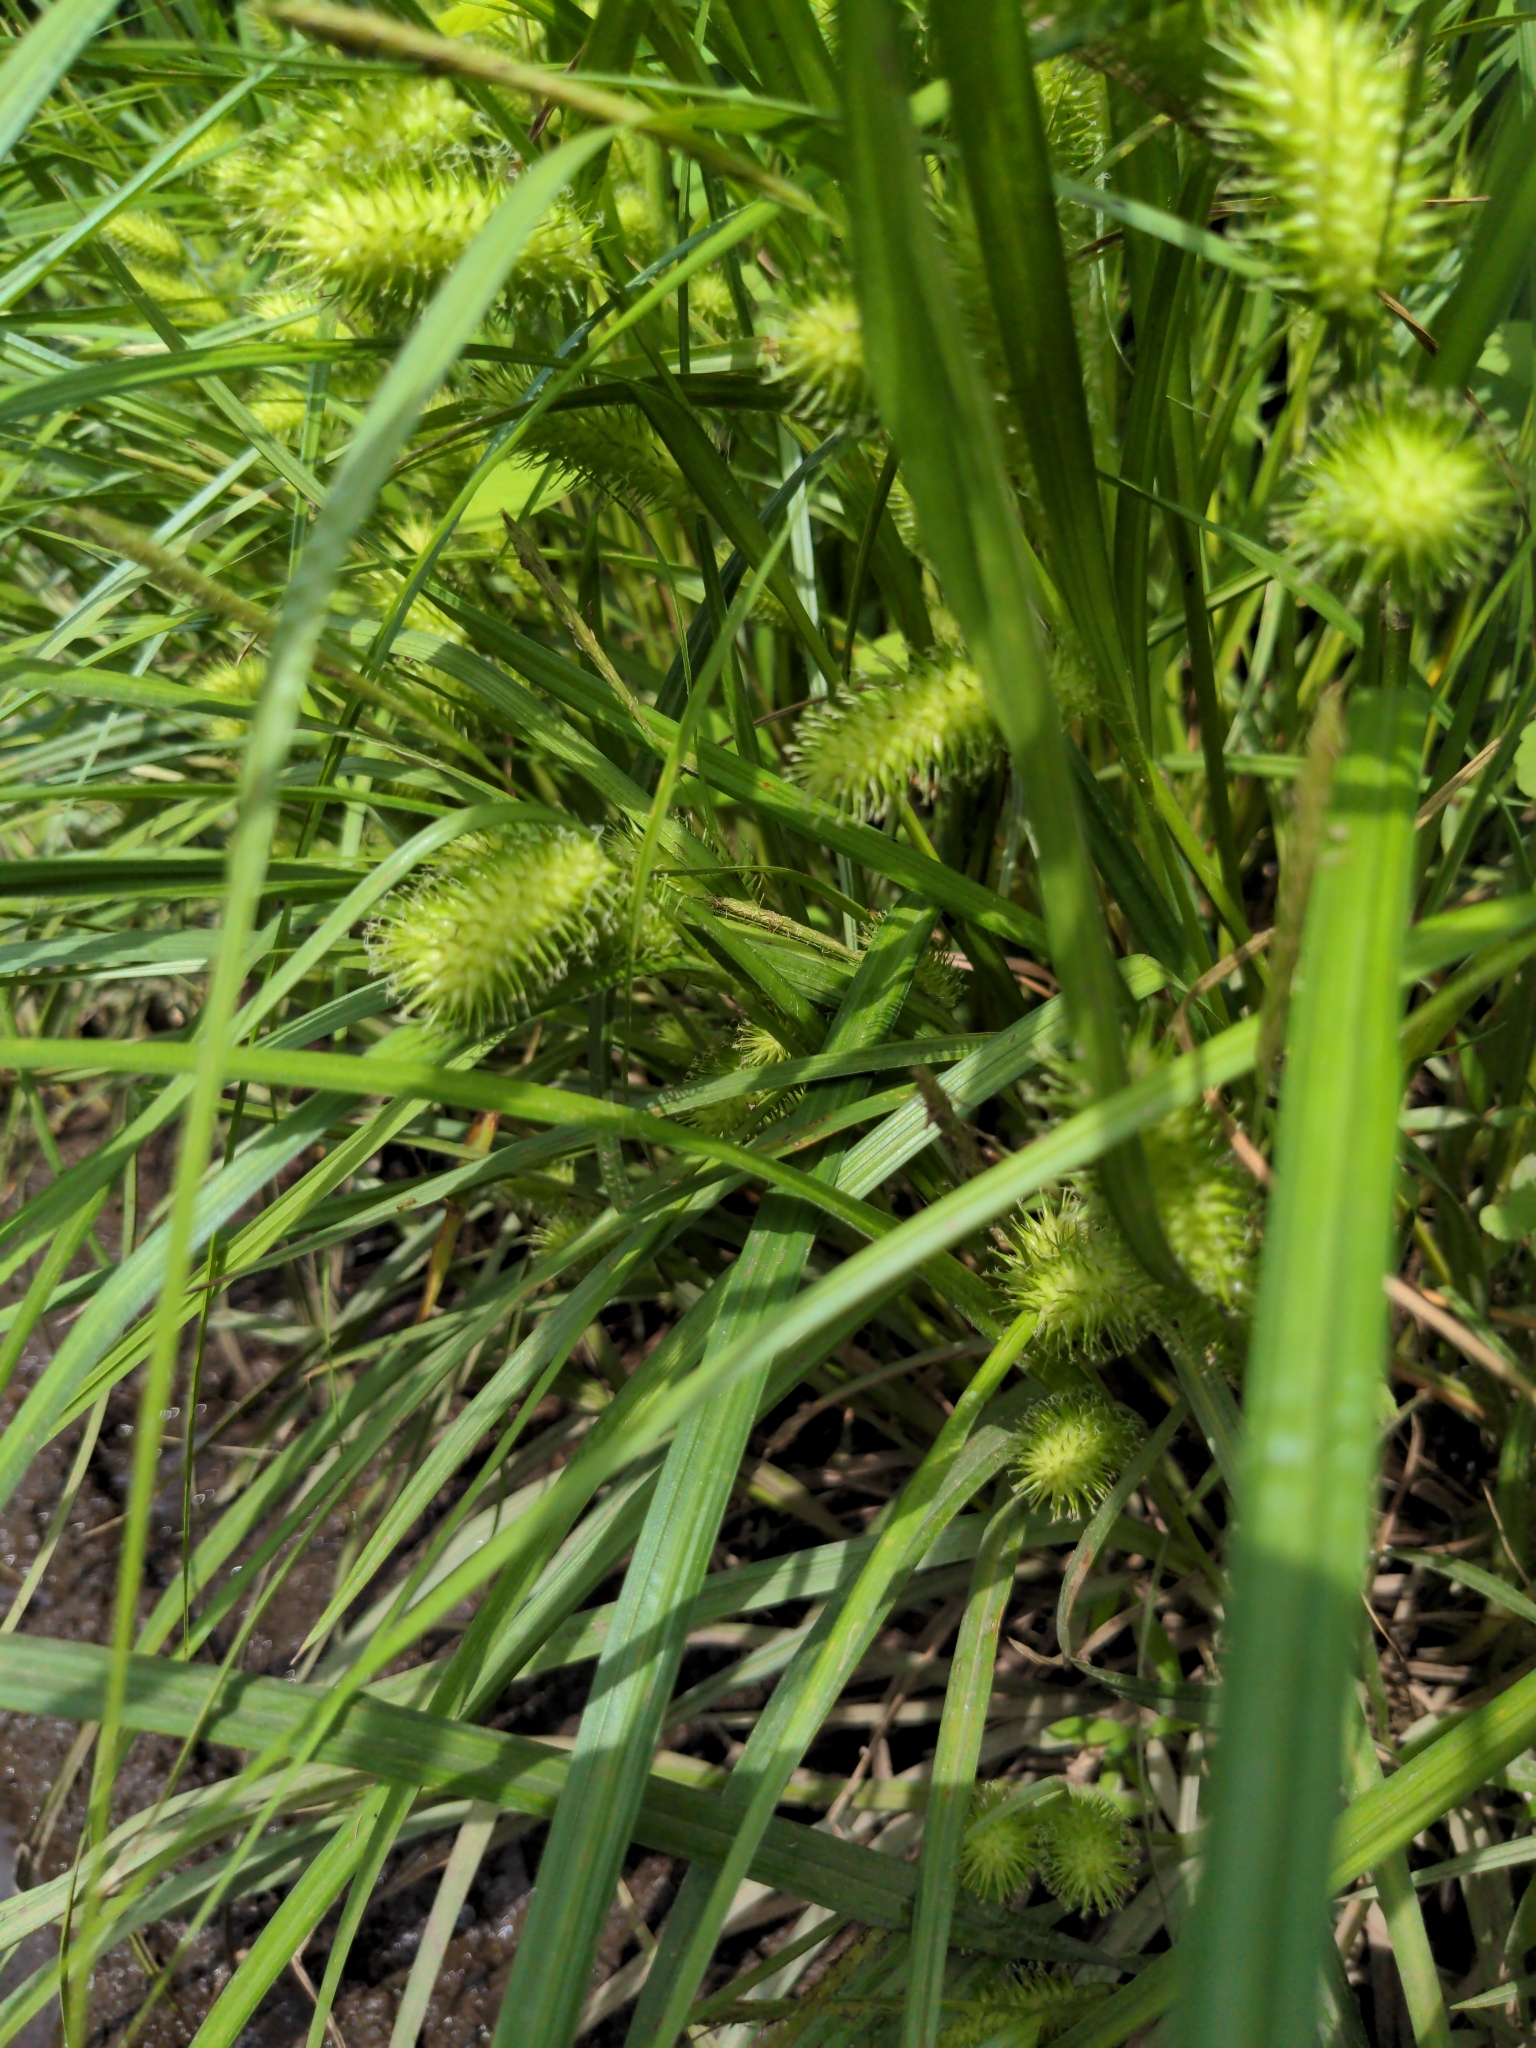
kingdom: Plantae
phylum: Tracheophyta
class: Liliopsida
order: Poales
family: Cyperaceae
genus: Carex
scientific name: Carex lurida
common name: Sallow sedge
